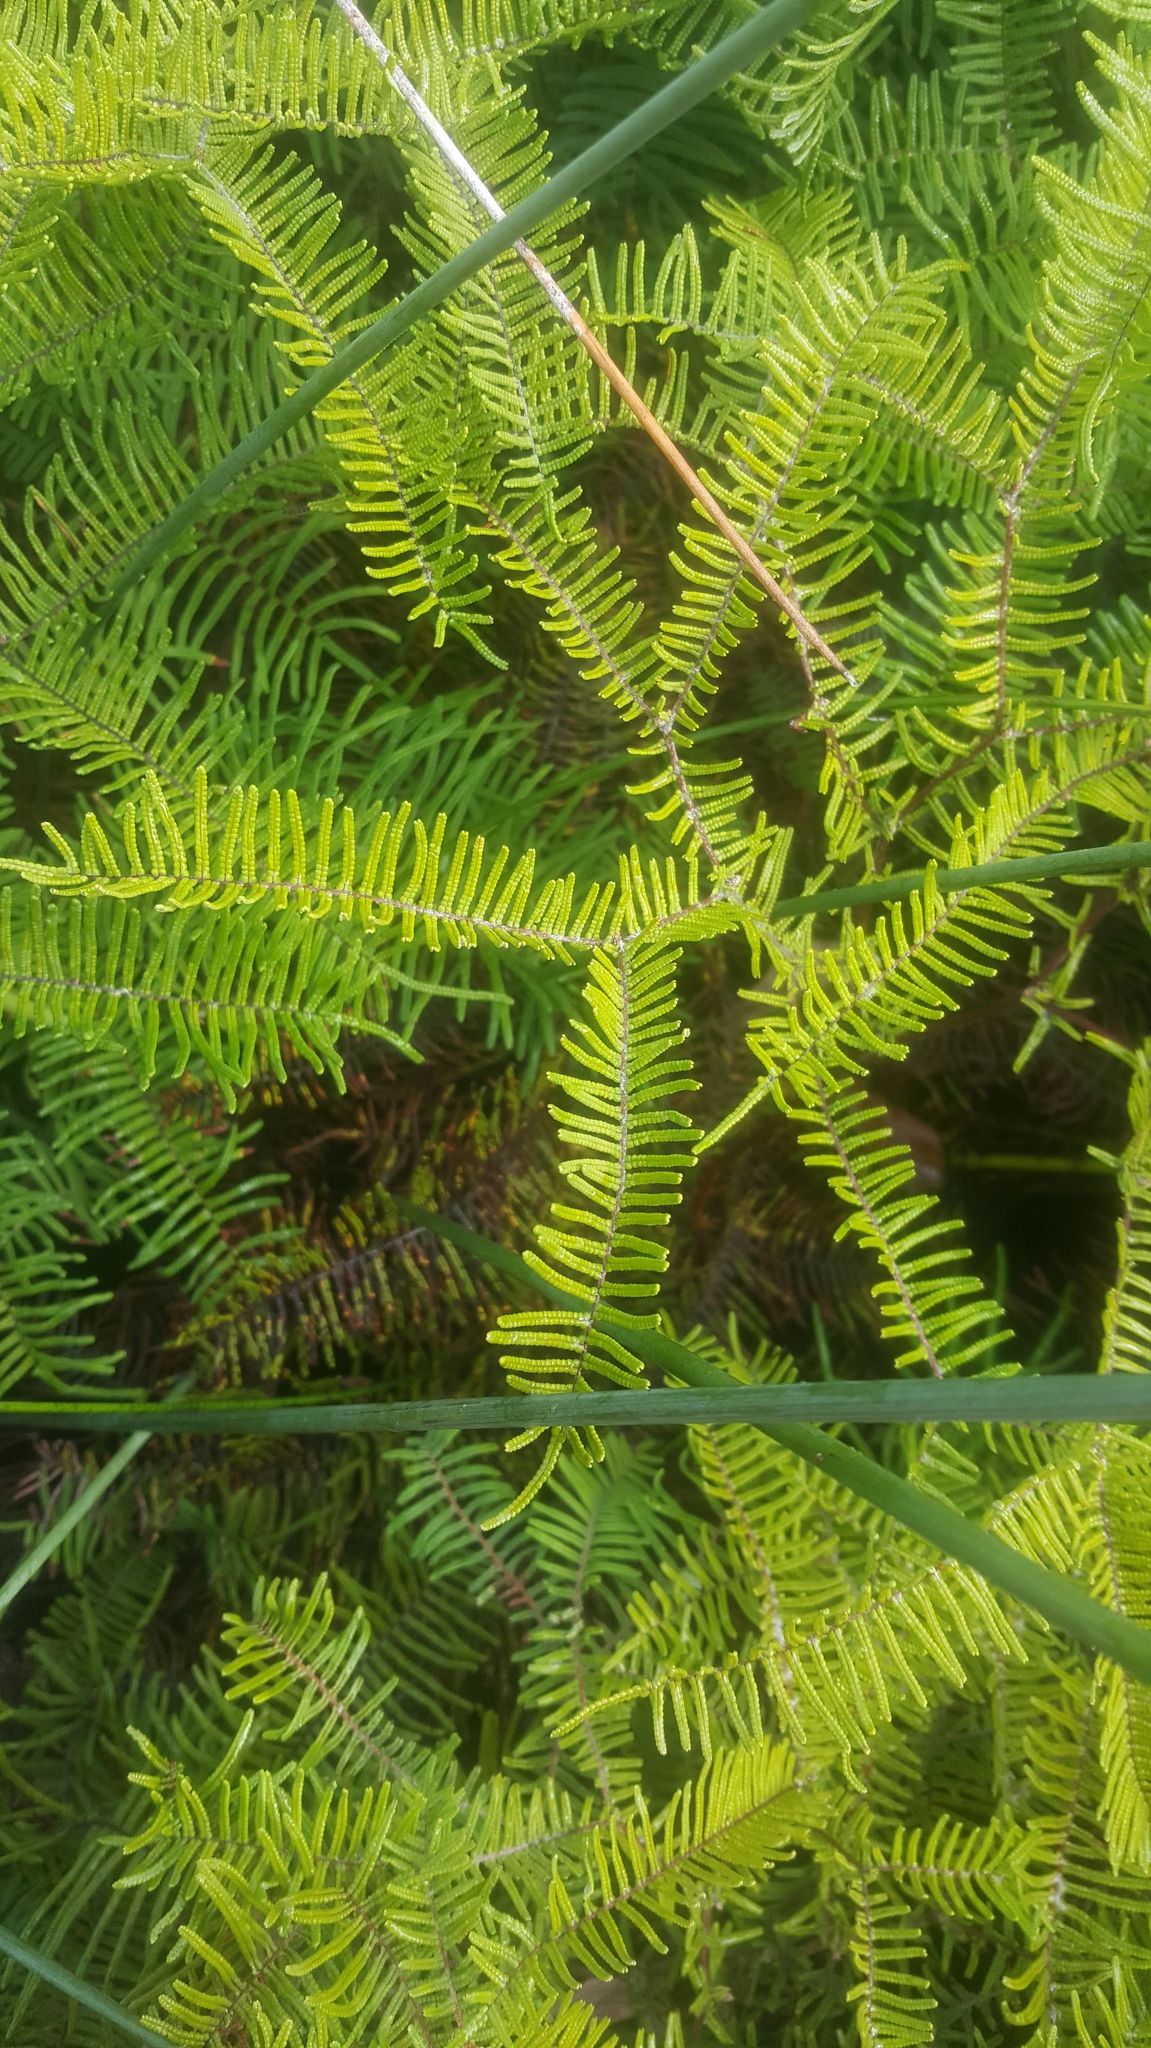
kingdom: Plantae
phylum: Tracheophyta
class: Polypodiopsida
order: Gleicheniales
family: Gleicheniaceae
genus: Gleichenia
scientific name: Gleichenia dicarpa
